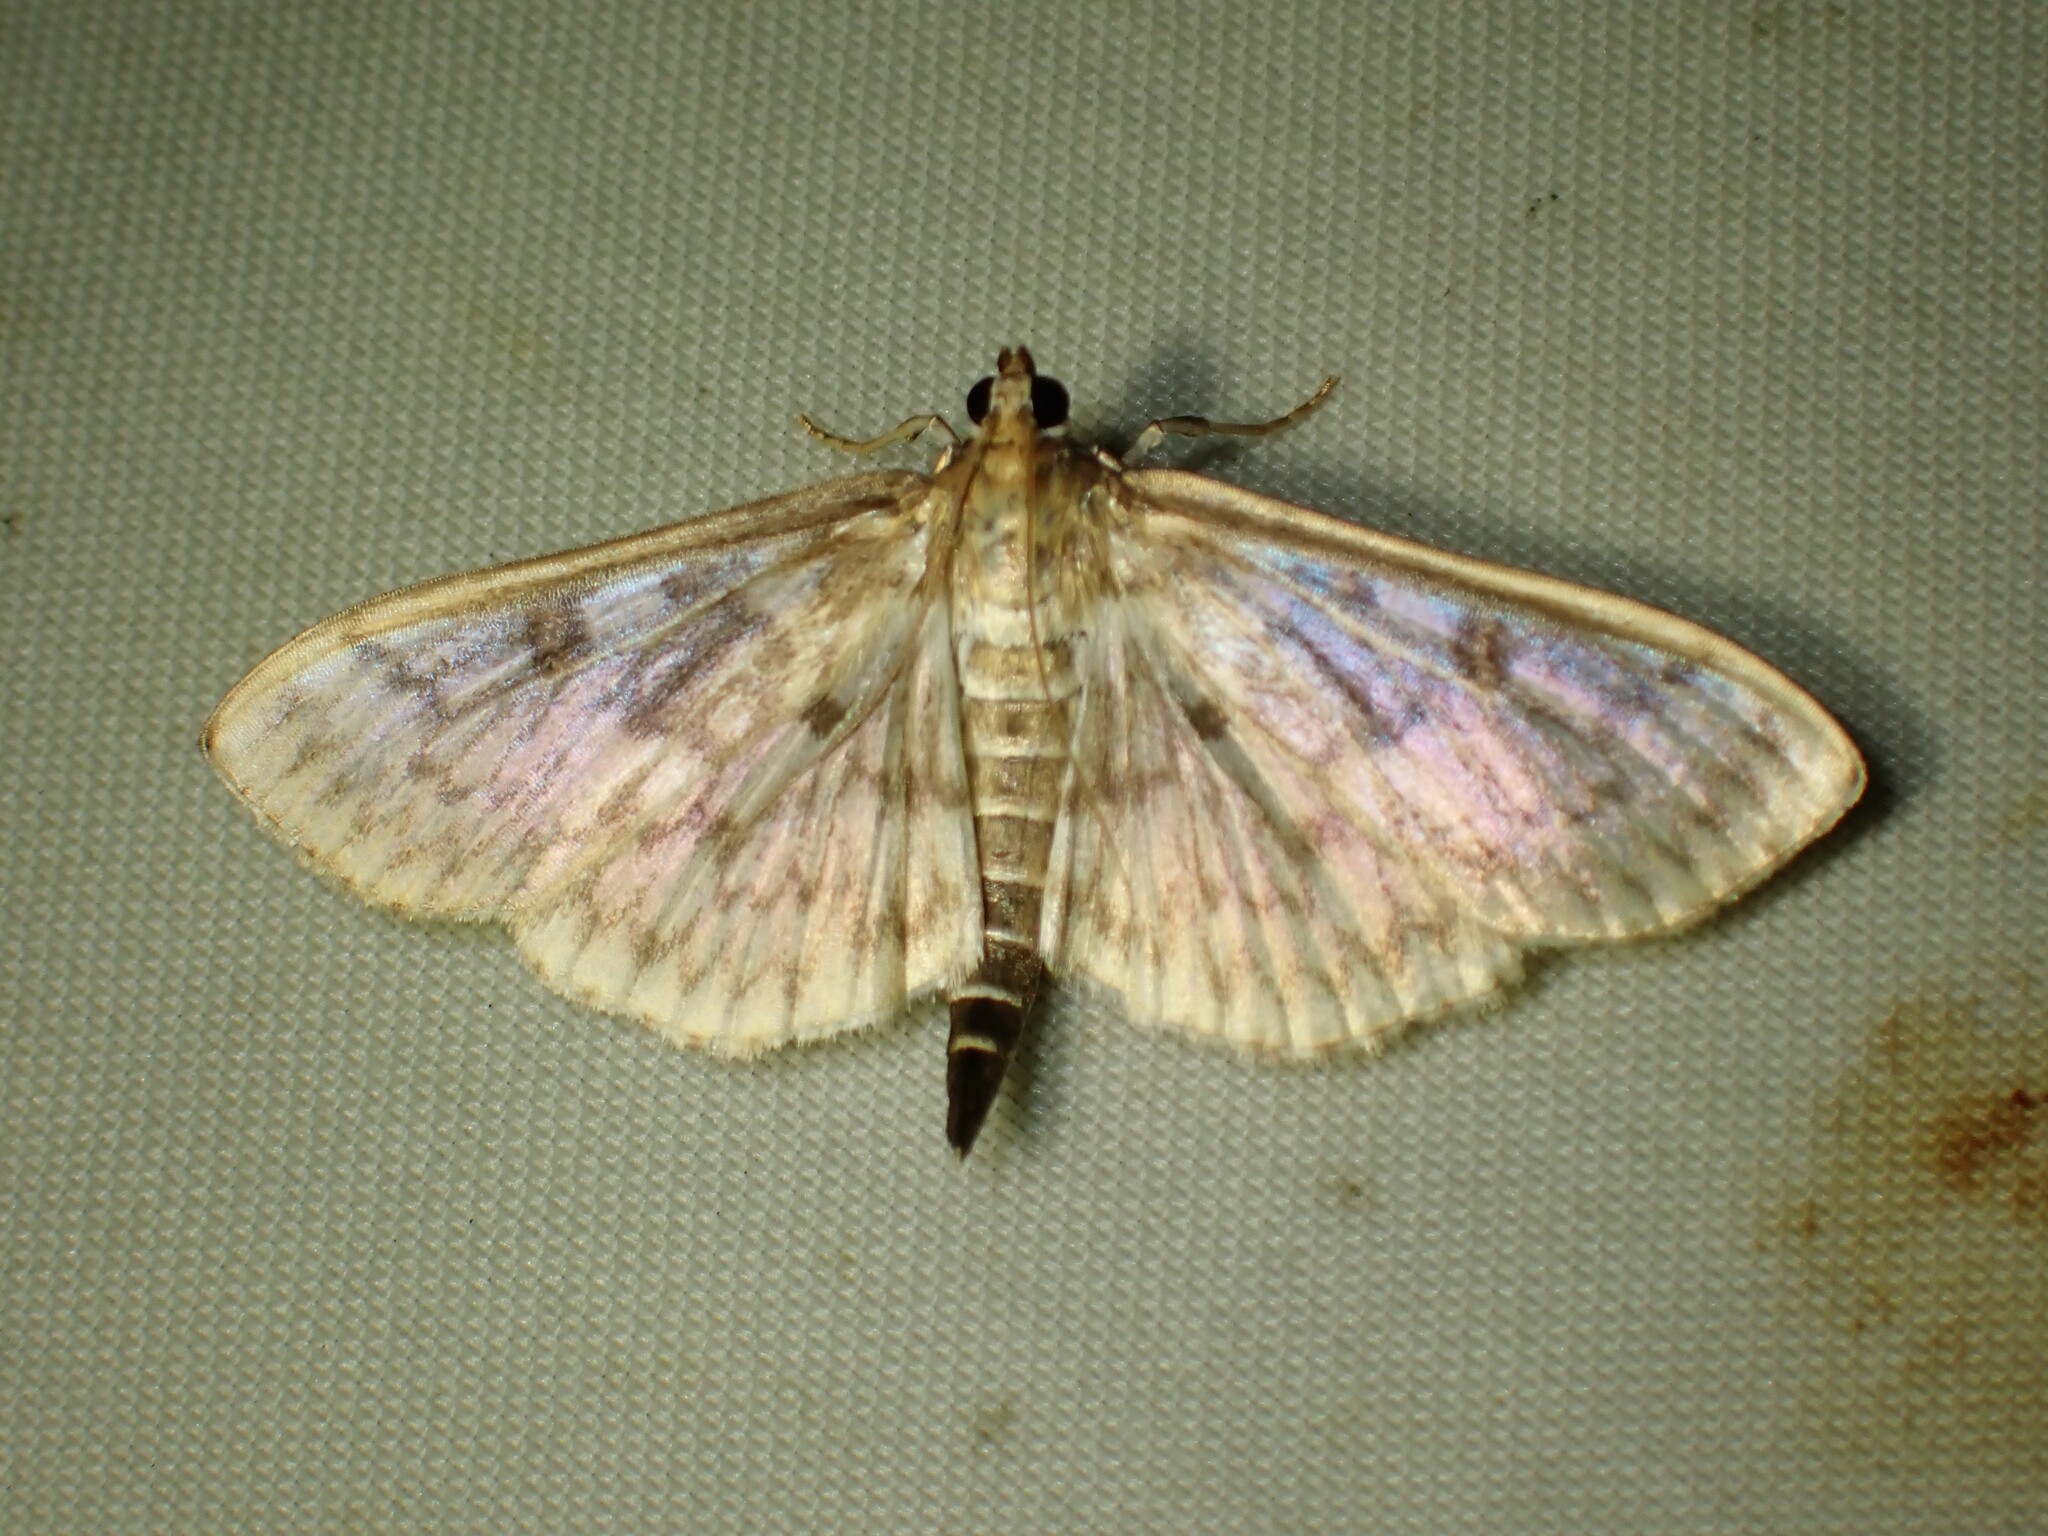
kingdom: Animalia
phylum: Arthropoda
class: Insecta
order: Lepidoptera
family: Crambidae
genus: Herpetogramma
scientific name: Herpetogramma aquilonalis
